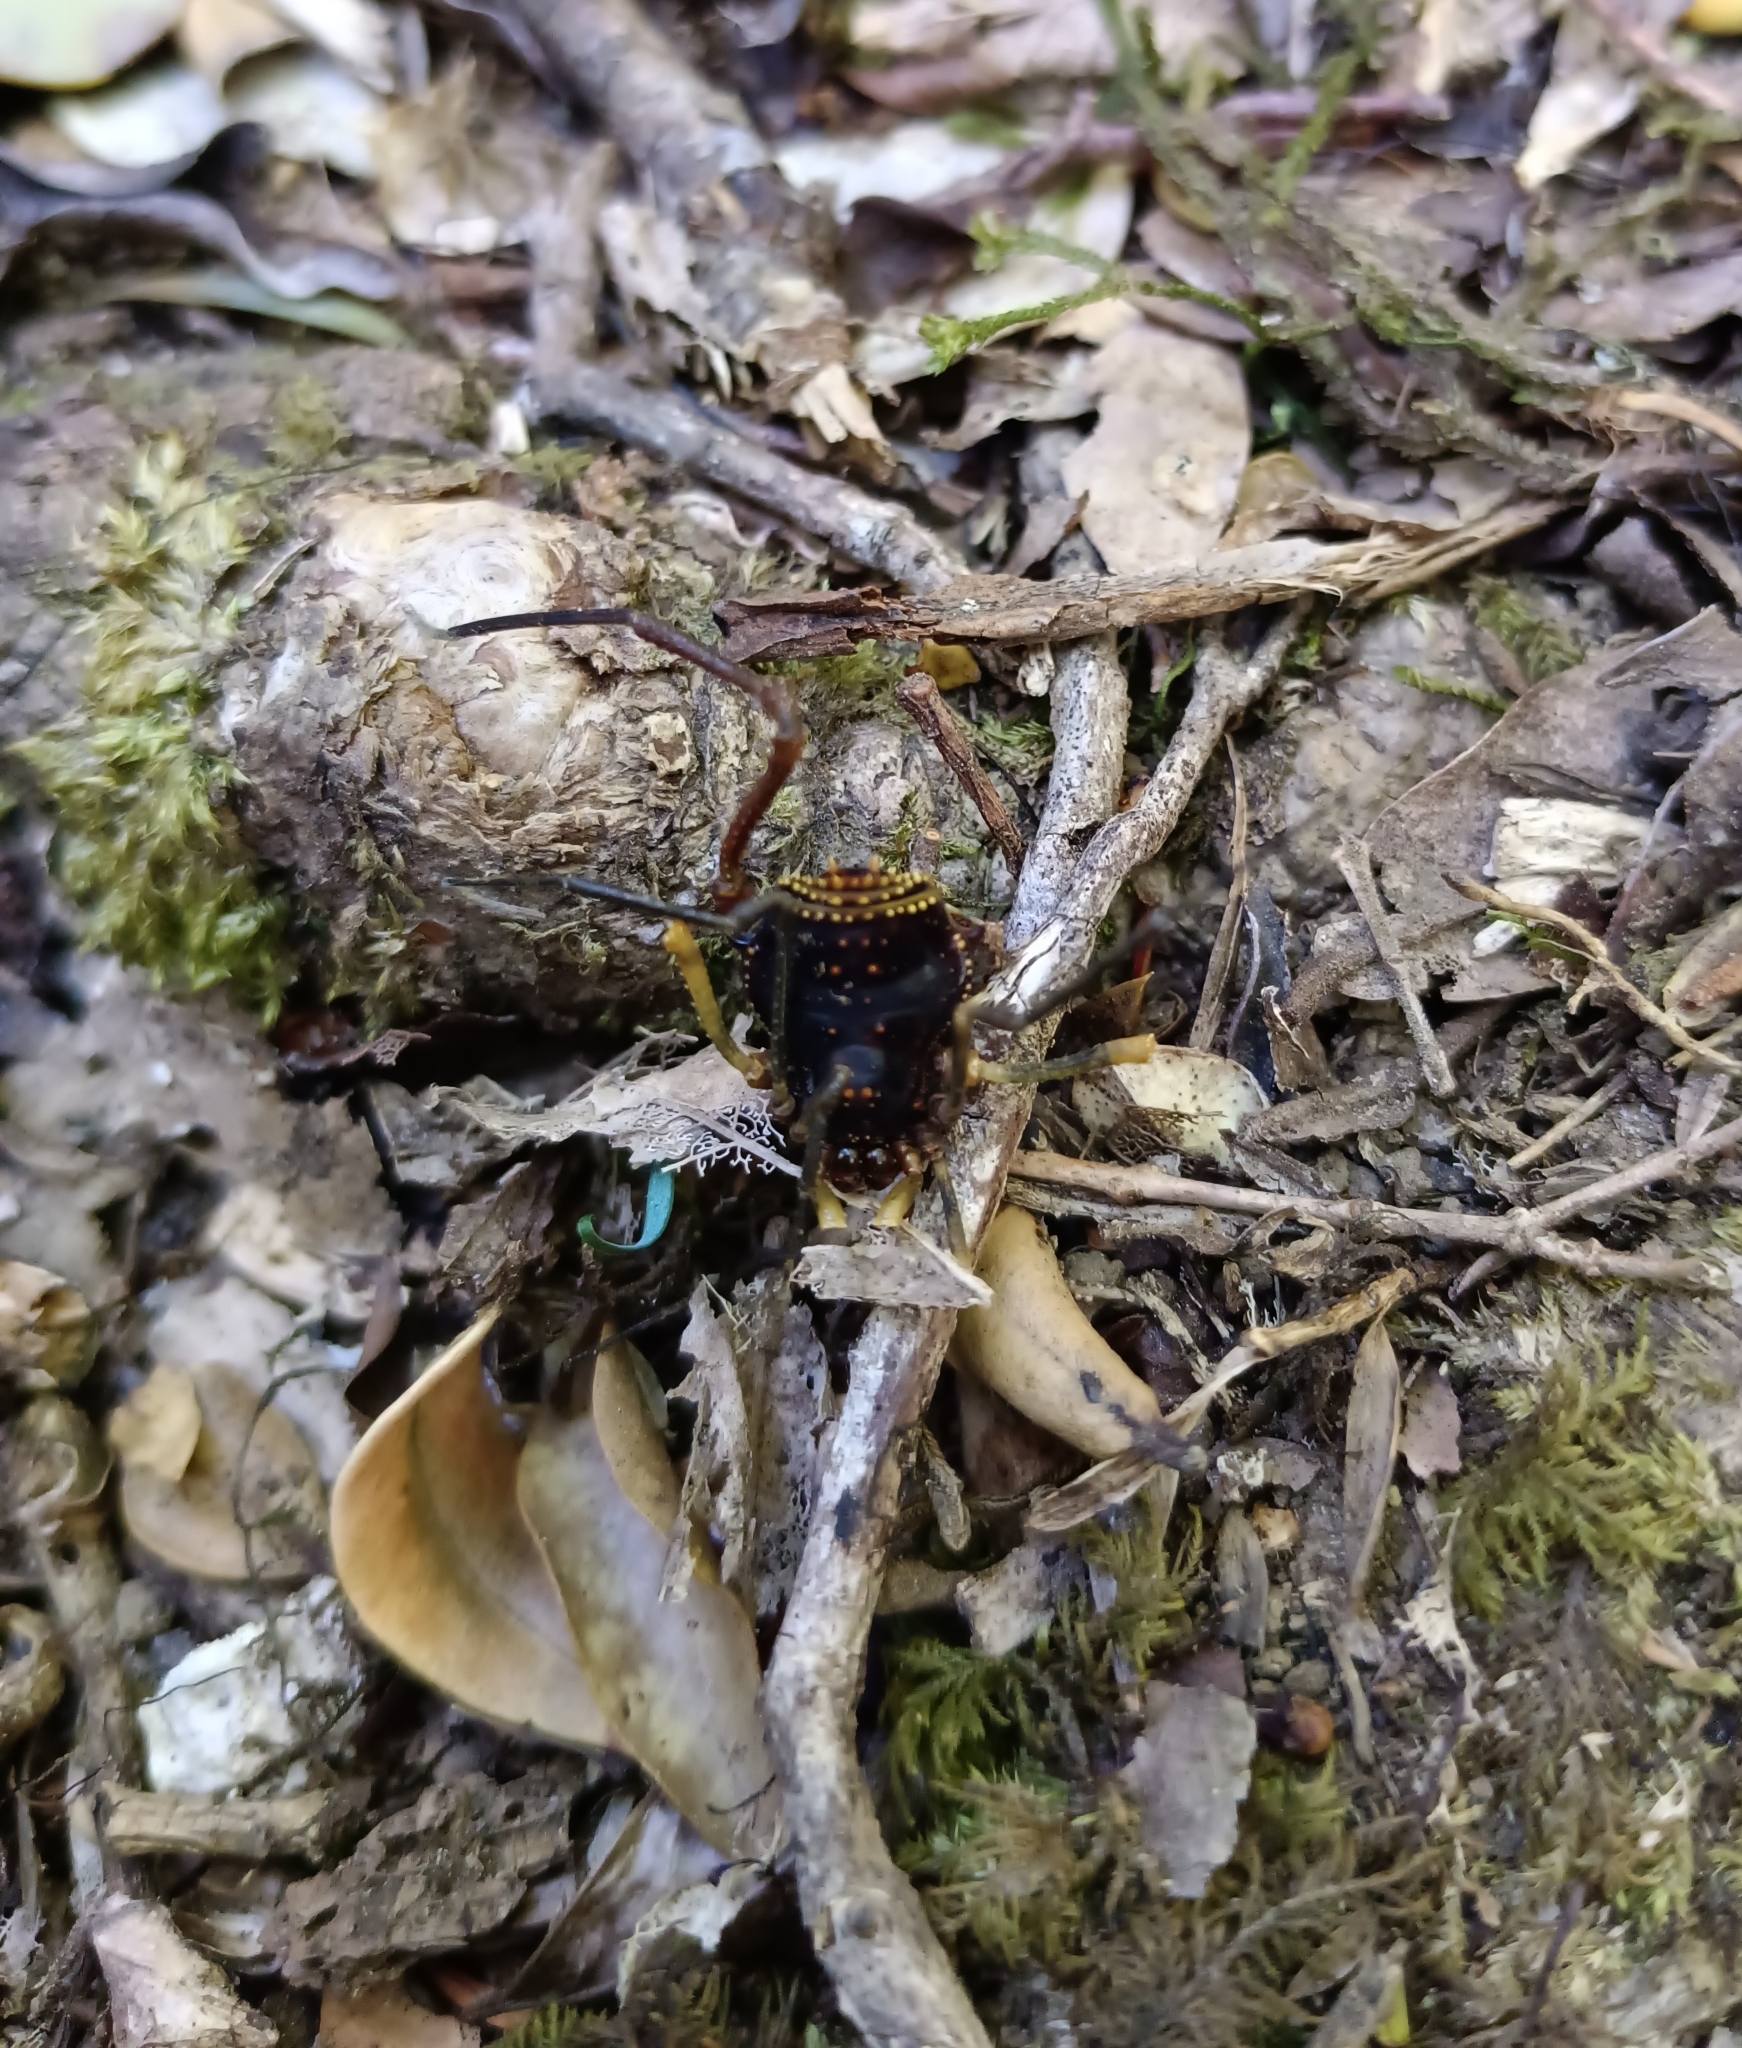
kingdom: Animalia
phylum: Arthropoda
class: Arachnida
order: Opiliones
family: Gonyleptidae
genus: Sadocus
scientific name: Sadocus funestus
